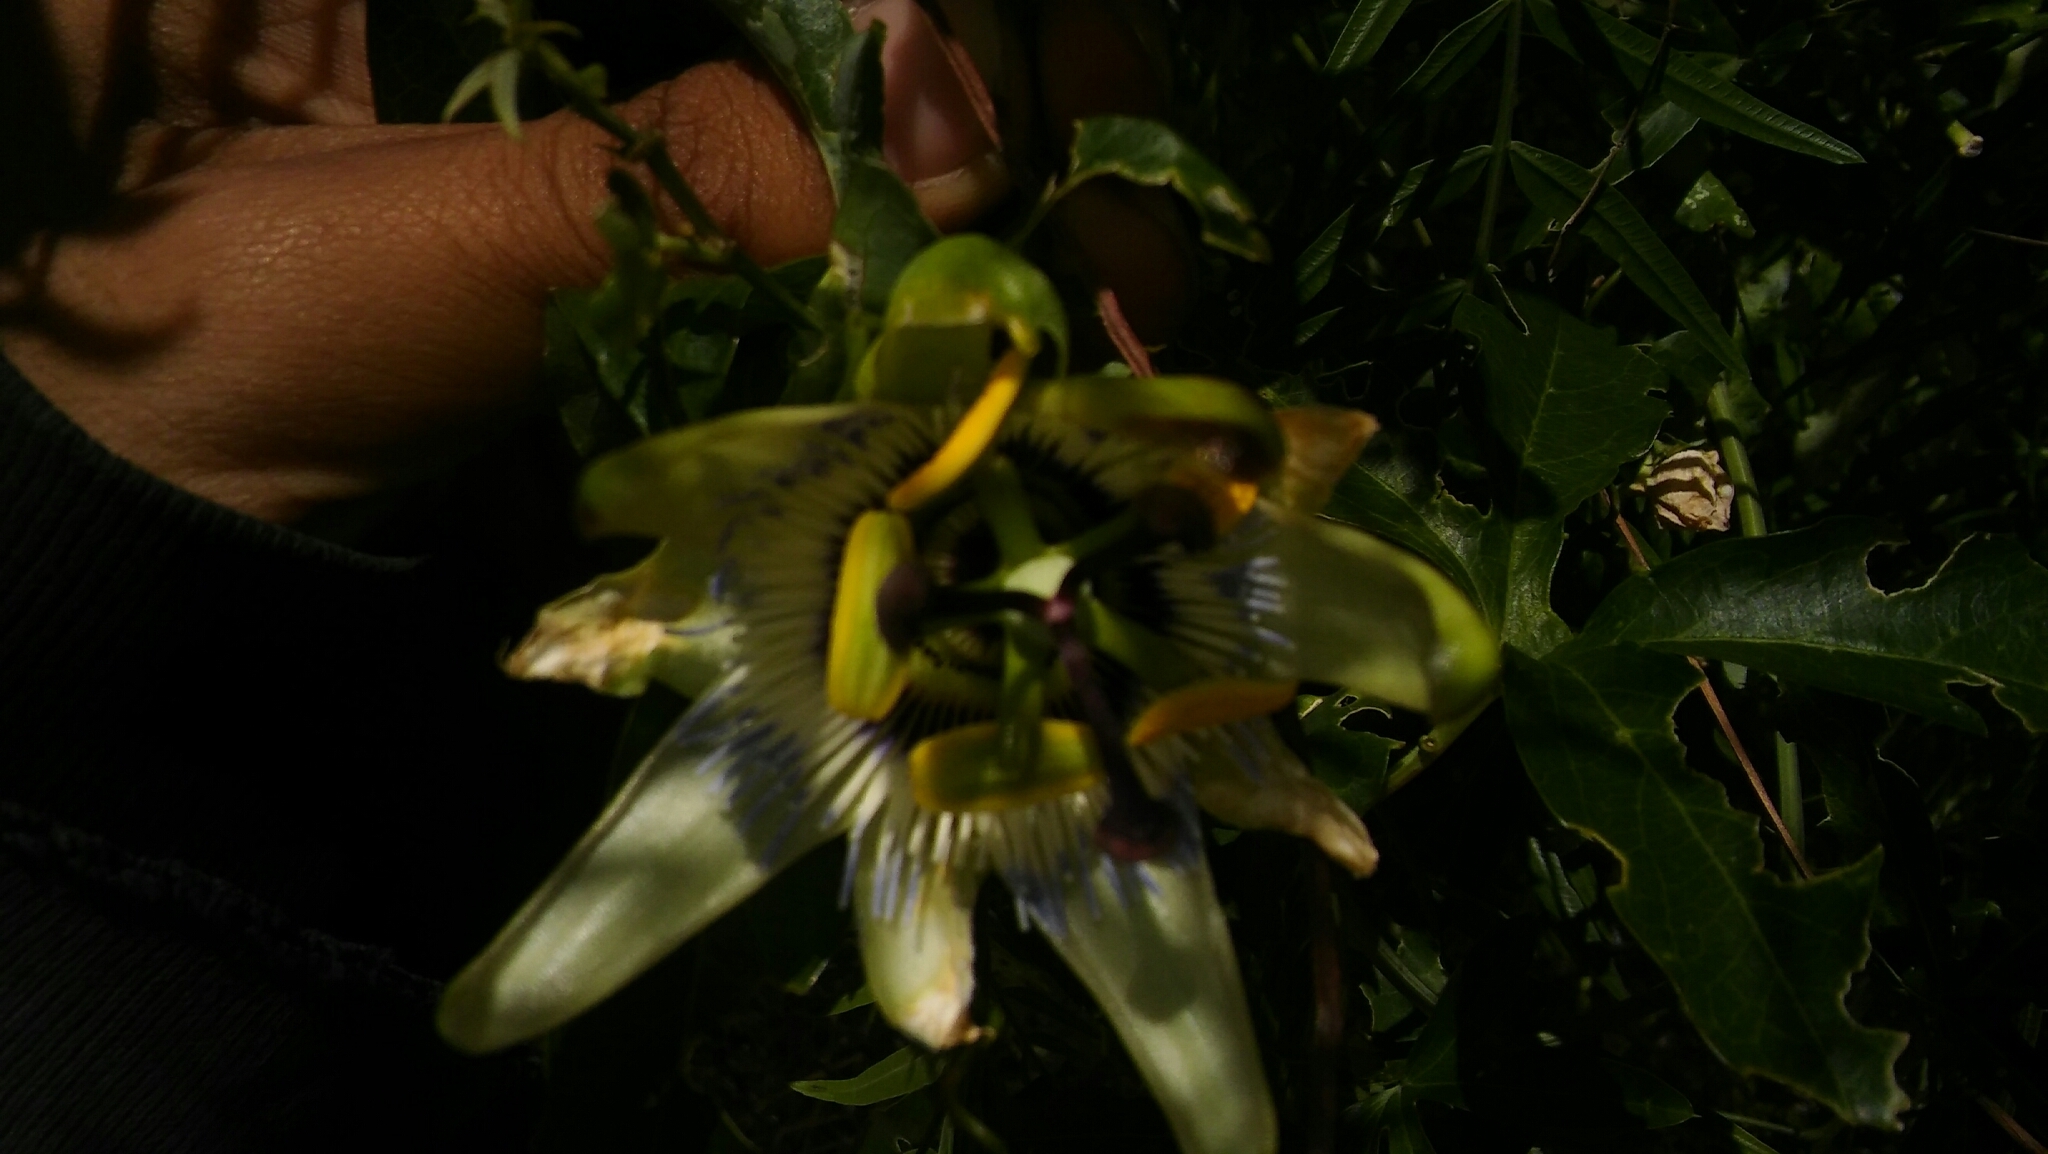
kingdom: Plantae
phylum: Tracheophyta
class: Magnoliopsida
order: Malpighiales
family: Passifloraceae
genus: Passiflora
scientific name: Passiflora caerulea
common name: Blue passionflower
